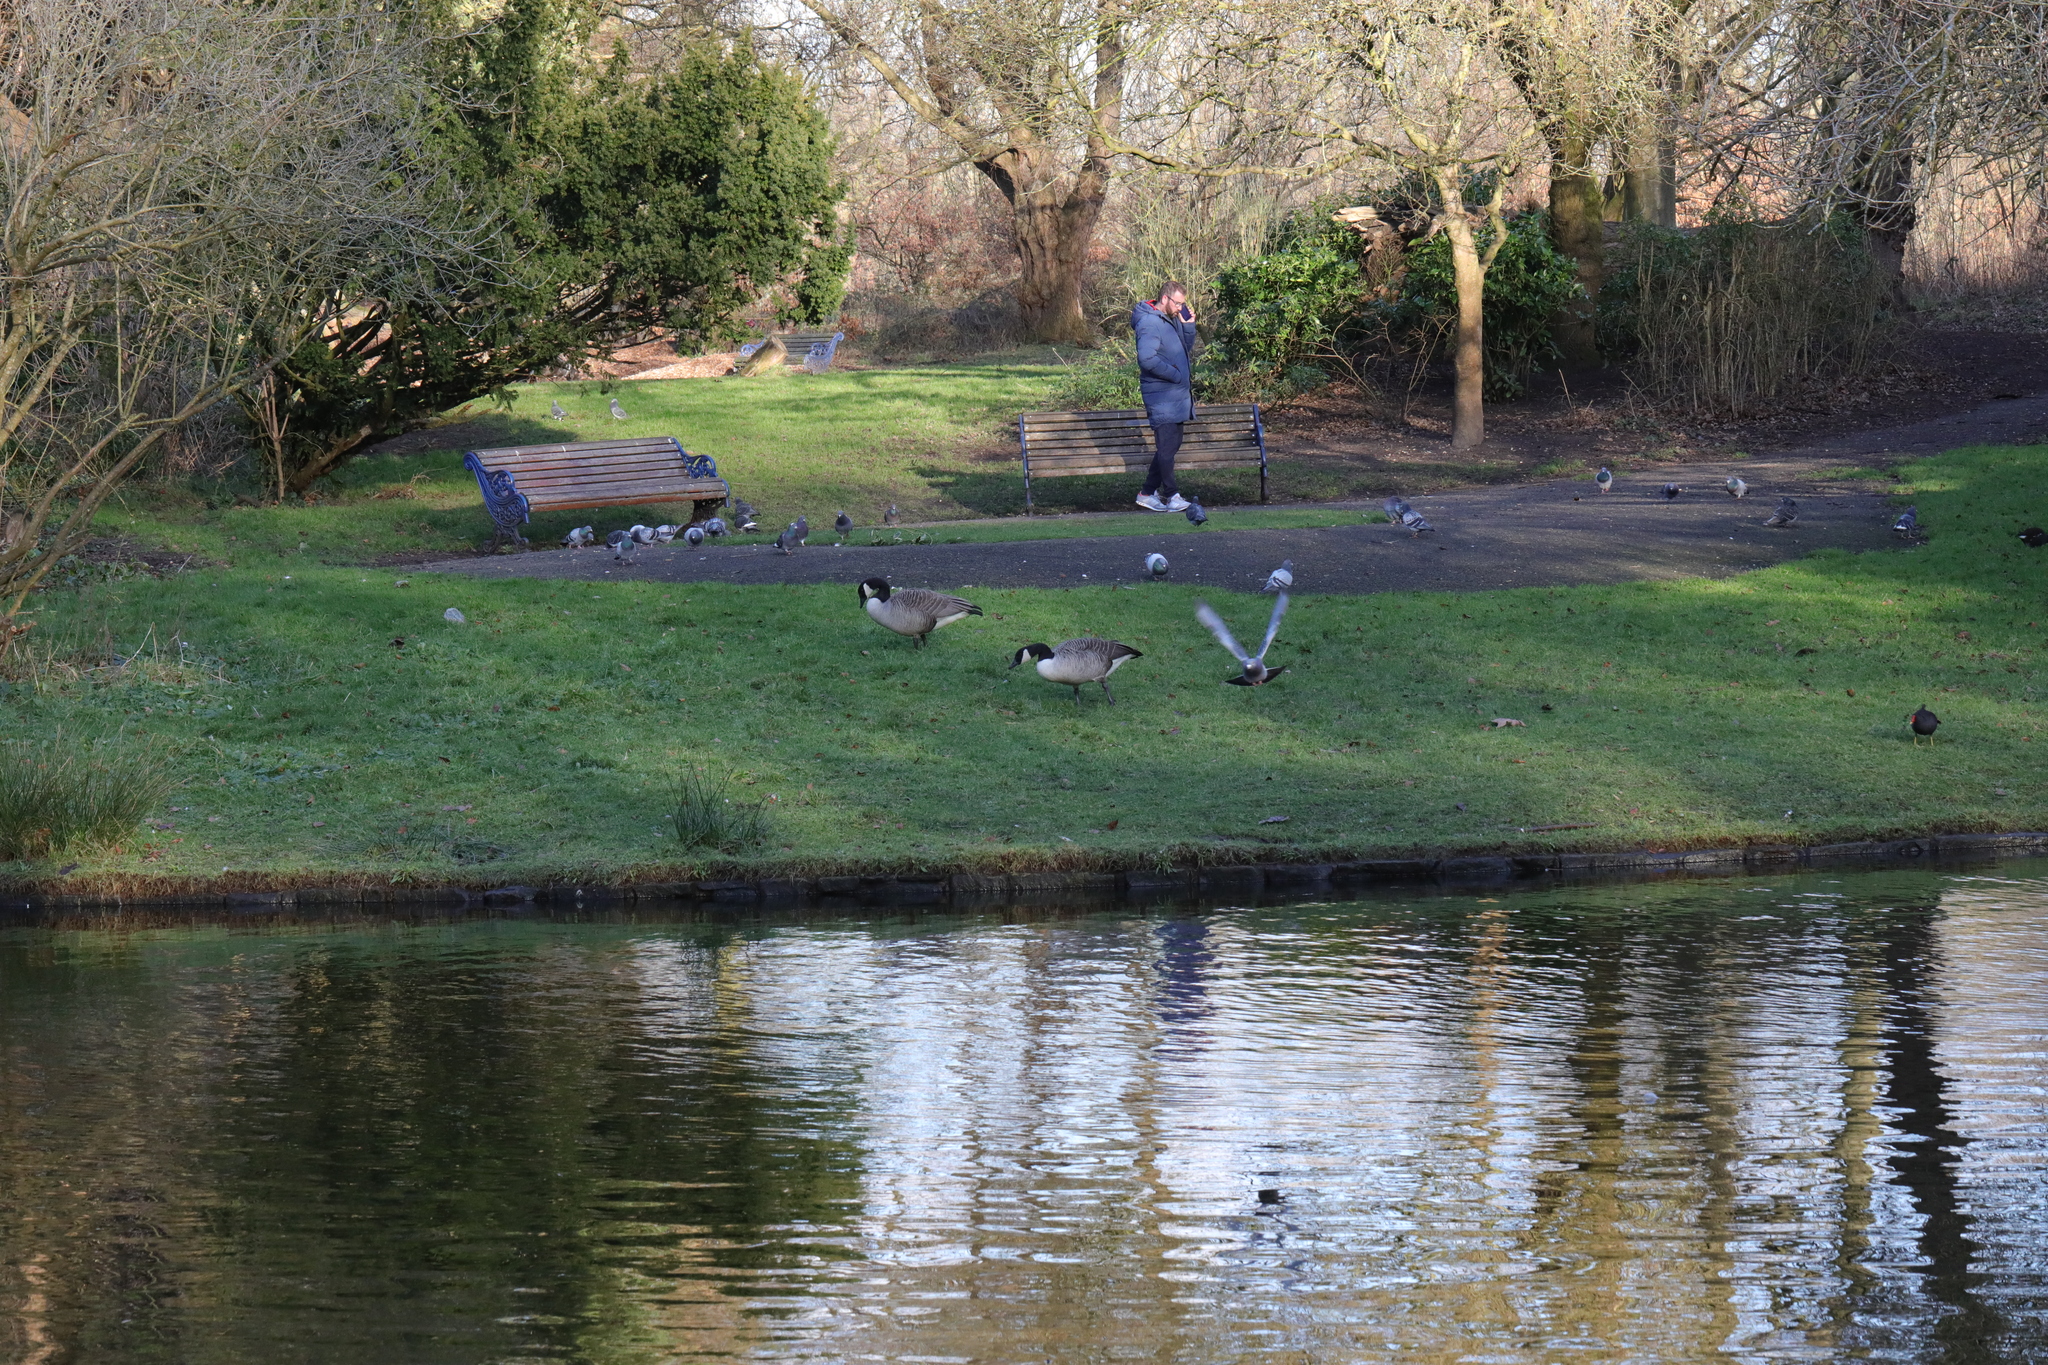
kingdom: Animalia
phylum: Chordata
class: Aves
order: Anseriformes
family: Anatidae
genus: Branta
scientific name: Branta canadensis
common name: Canada goose
